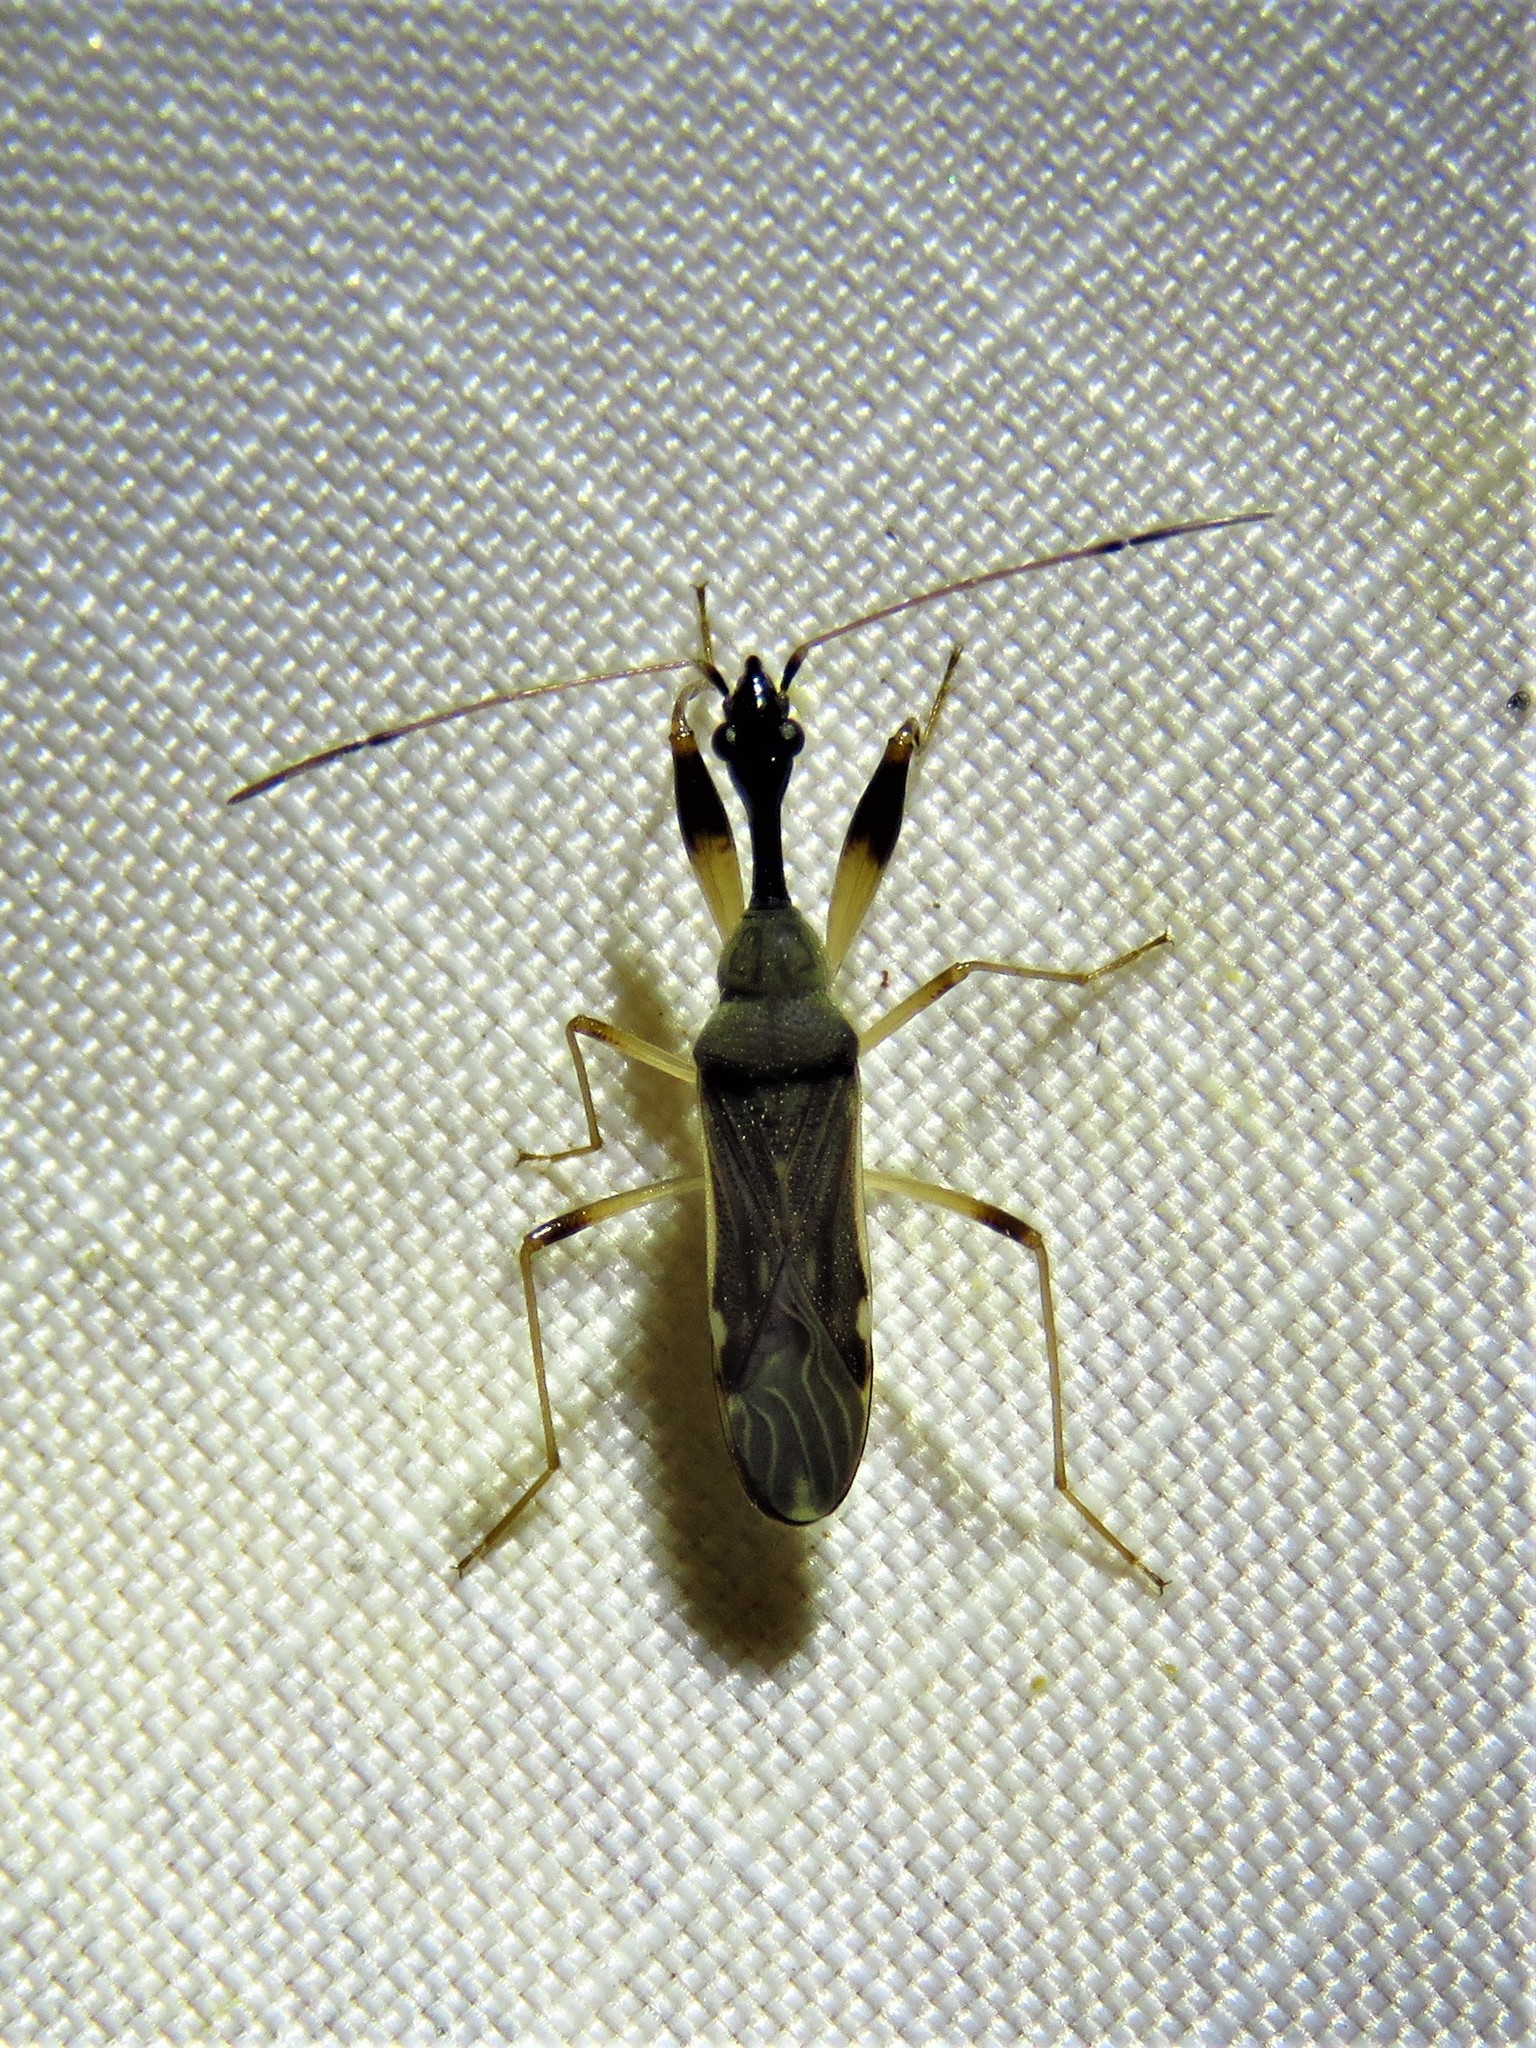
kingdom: Animalia
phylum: Arthropoda
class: Insecta
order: Hemiptera
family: Rhyparochromidae
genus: Myodocha
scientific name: Myodocha serripes
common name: Long-necked seed bug
